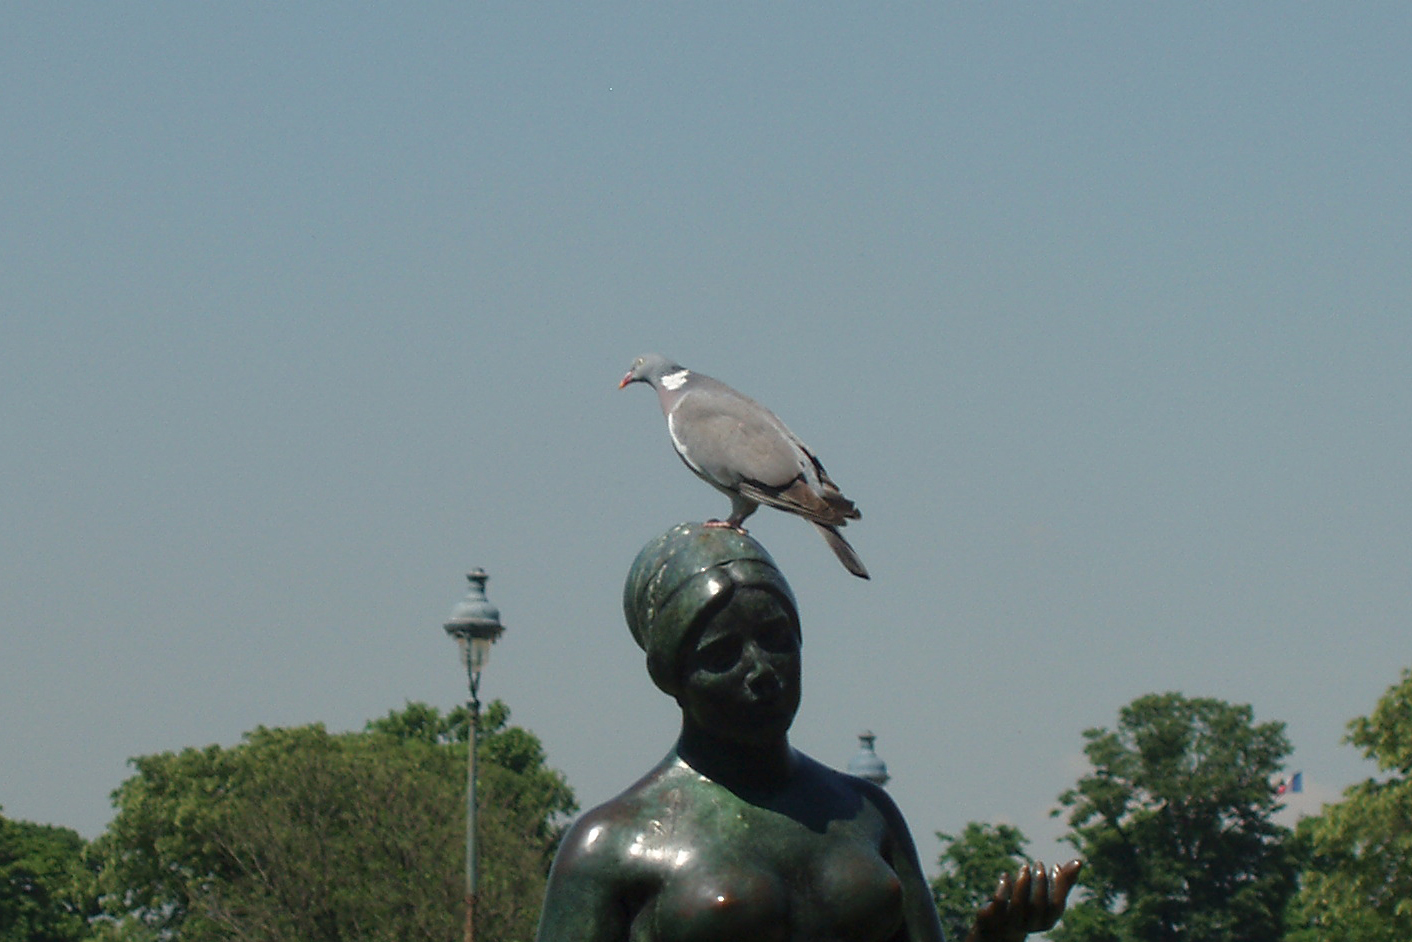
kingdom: Animalia
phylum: Chordata
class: Aves
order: Columbiformes
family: Columbidae
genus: Columba
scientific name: Columba palumbus
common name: Common wood pigeon
